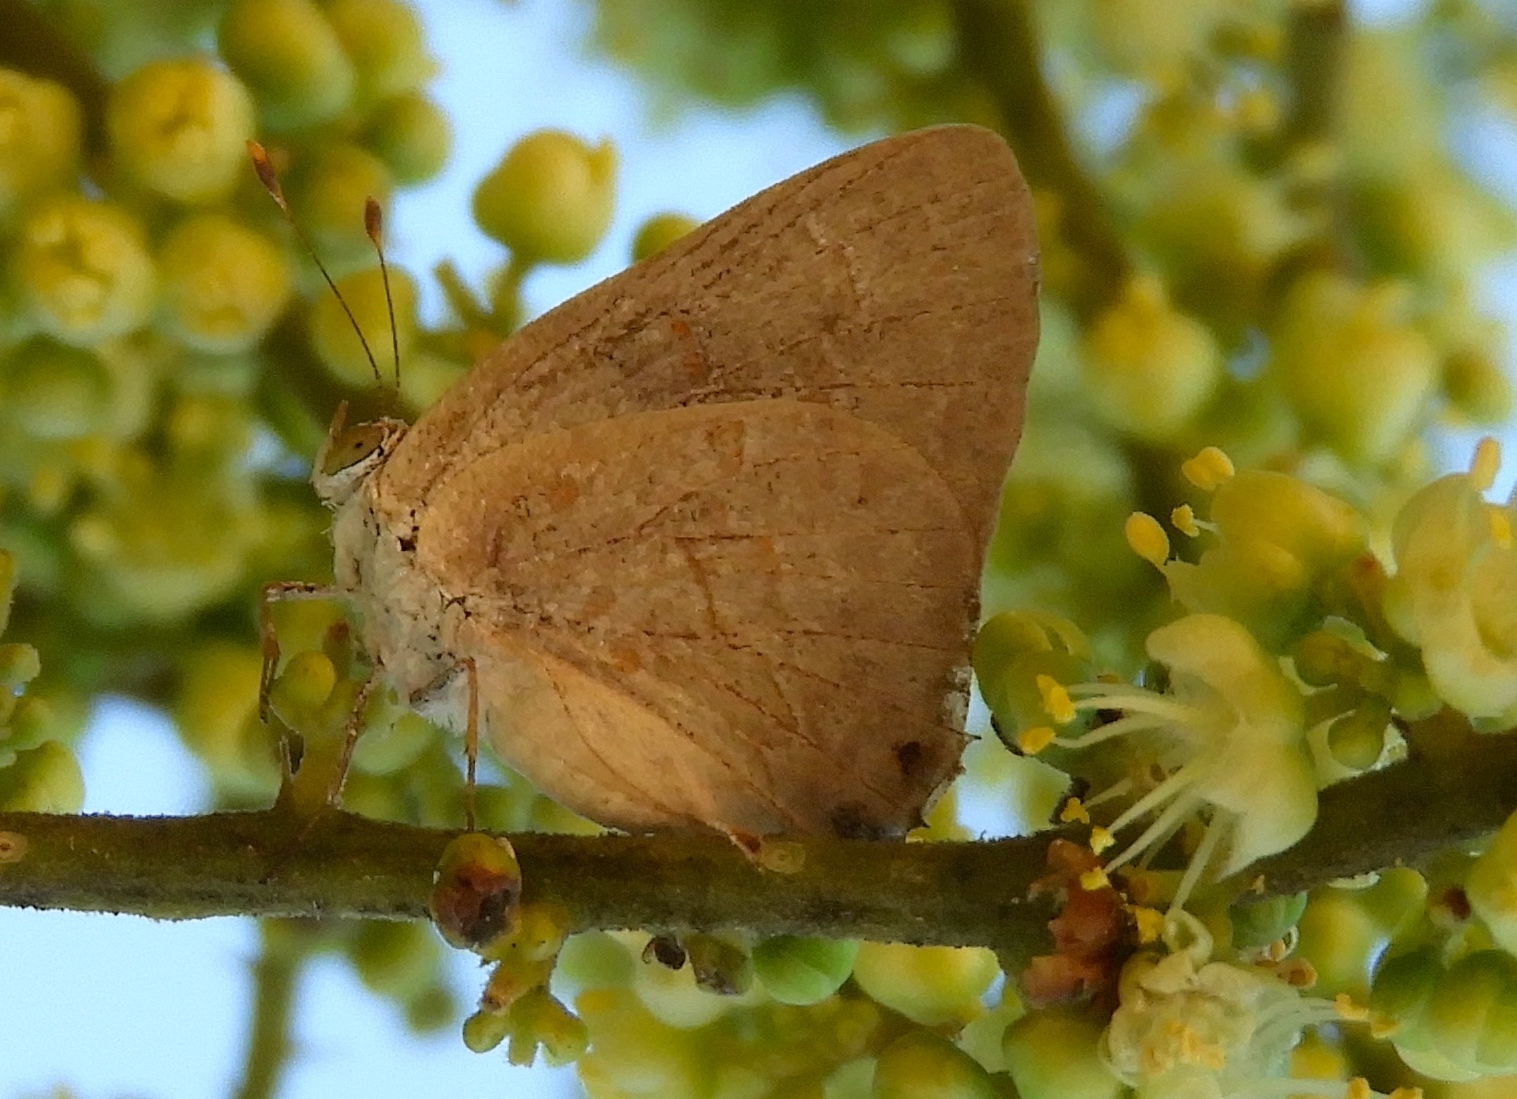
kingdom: Animalia
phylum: Arthropoda
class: Insecta
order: Lepidoptera
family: Lycaenidae
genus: Ministrymon
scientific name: Ministrymon clytie
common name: Clytie ministreak
